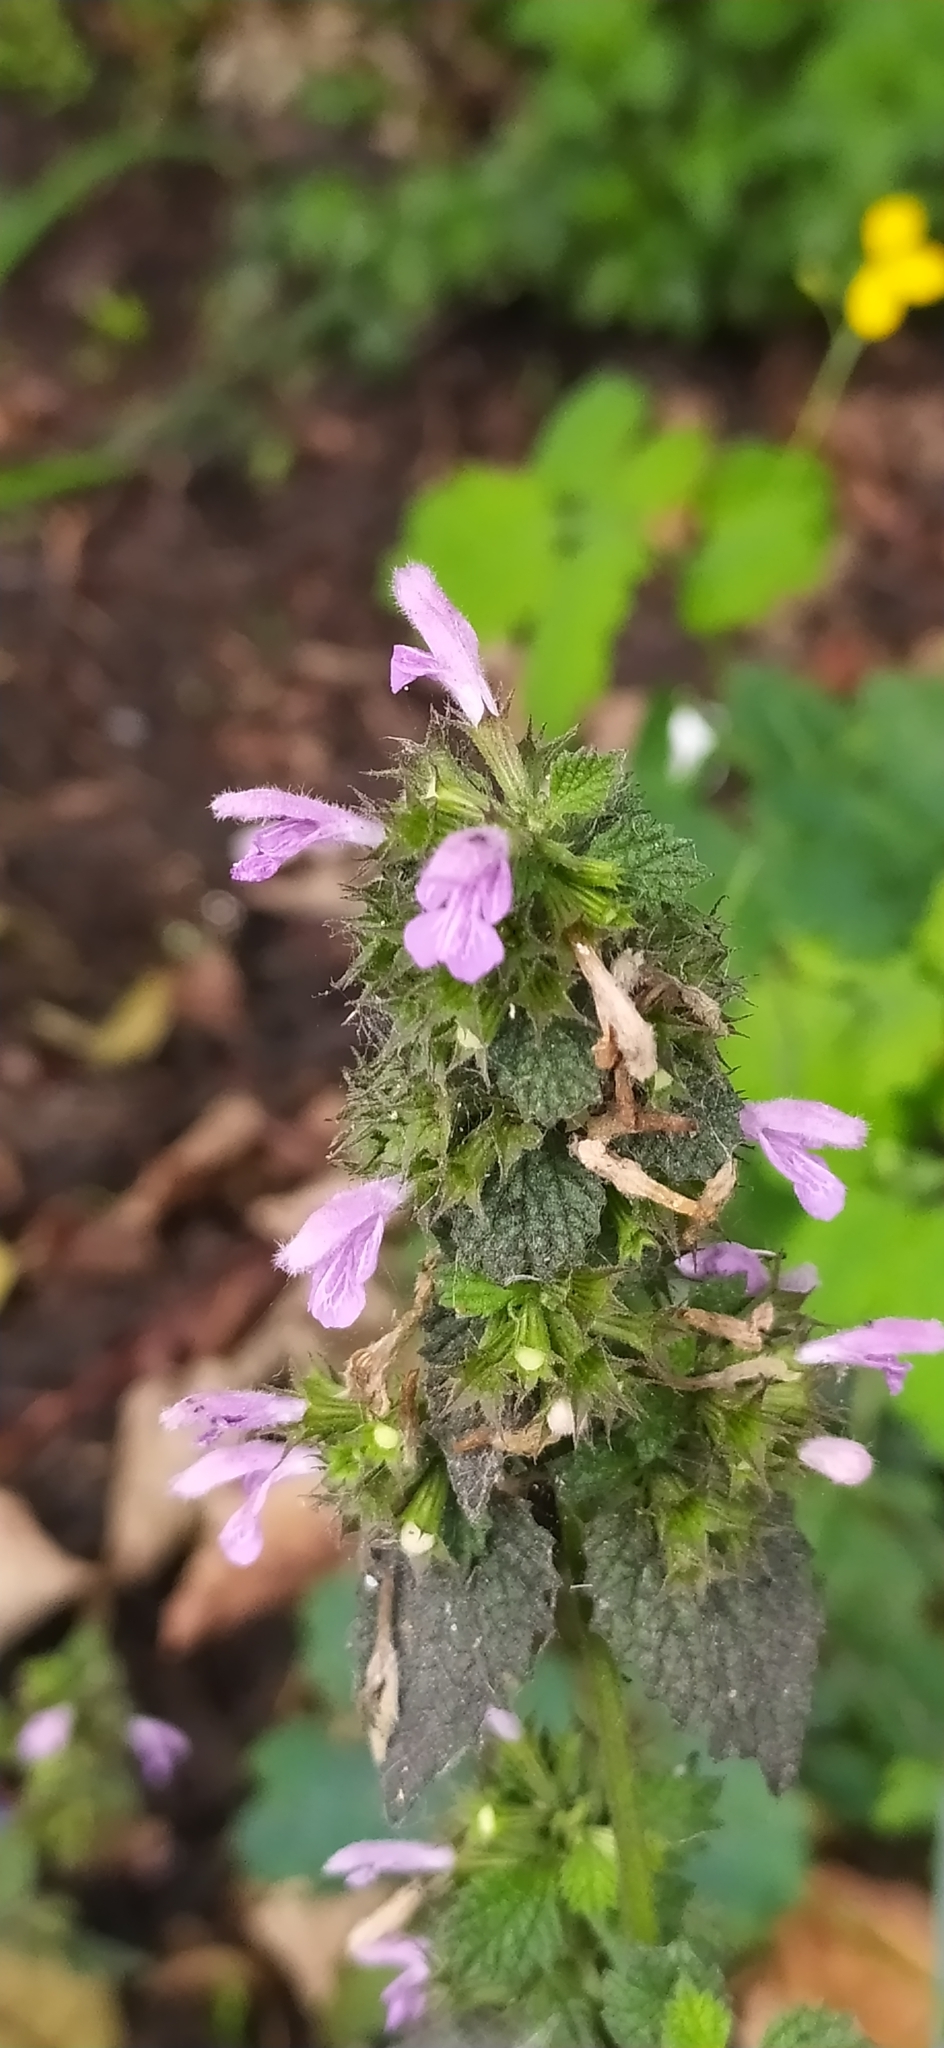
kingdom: Plantae
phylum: Tracheophyta
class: Magnoliopsida
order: Lamiales
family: Lamiaceae
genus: Ballota
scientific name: Ballota nigra
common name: Black horehound
